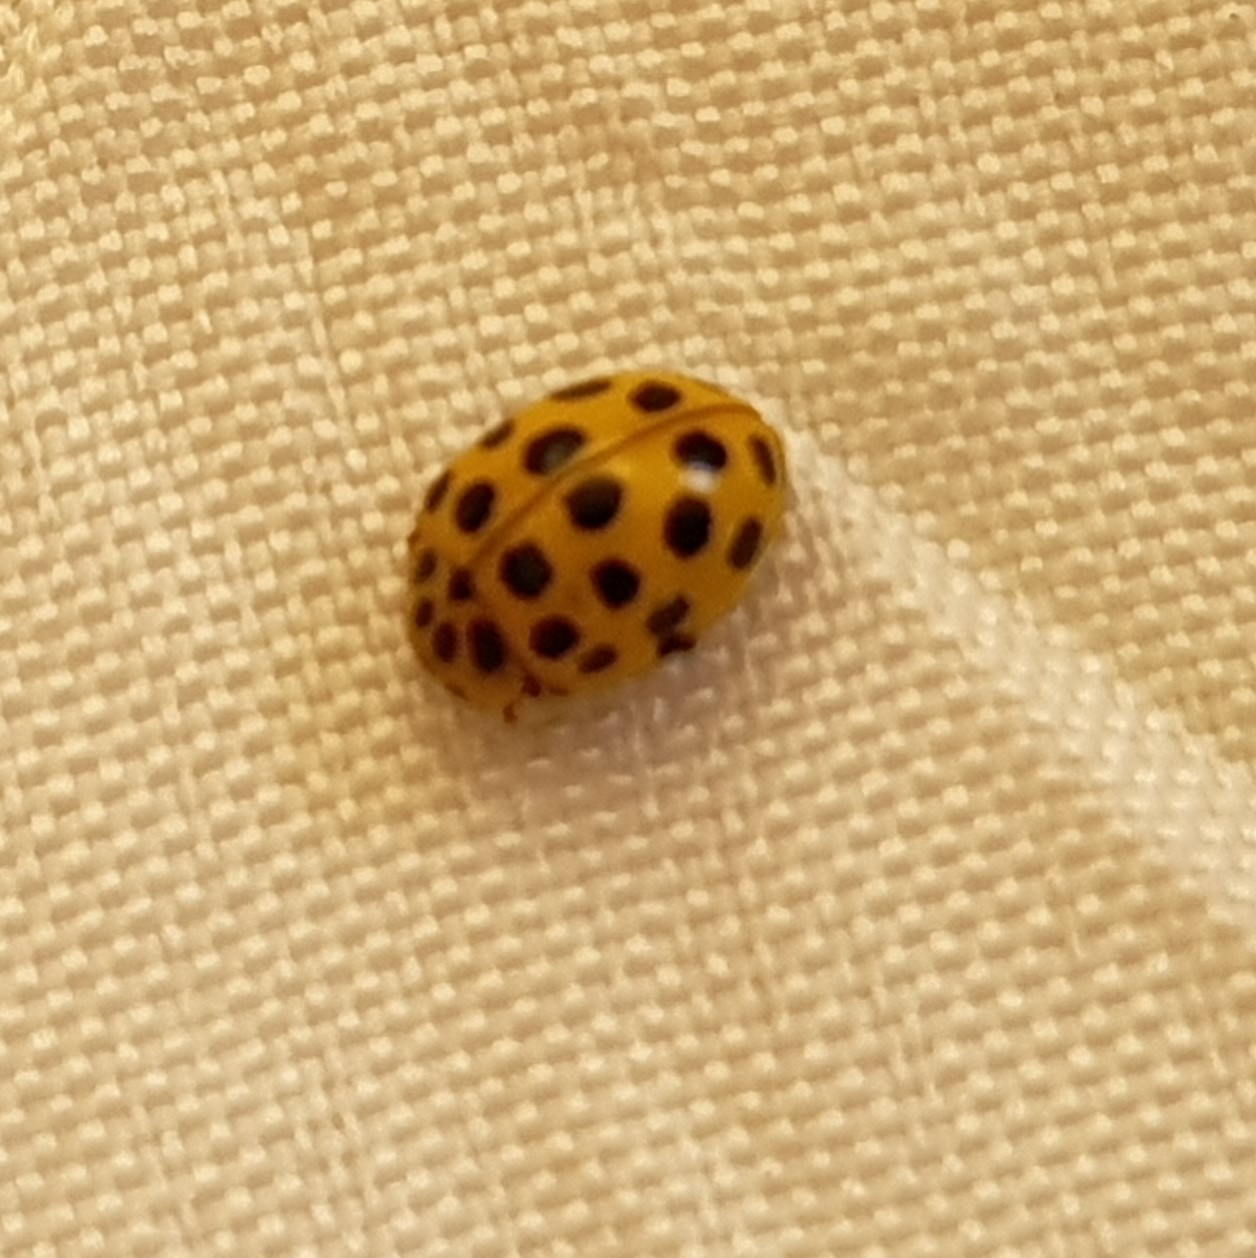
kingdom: Animalia
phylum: Arthropoda
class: Insecta
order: Coleoptera
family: Coccinellidae
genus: Psyllobora
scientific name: Psyllobora vigintiduopunctata
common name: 22-spot ladybird
